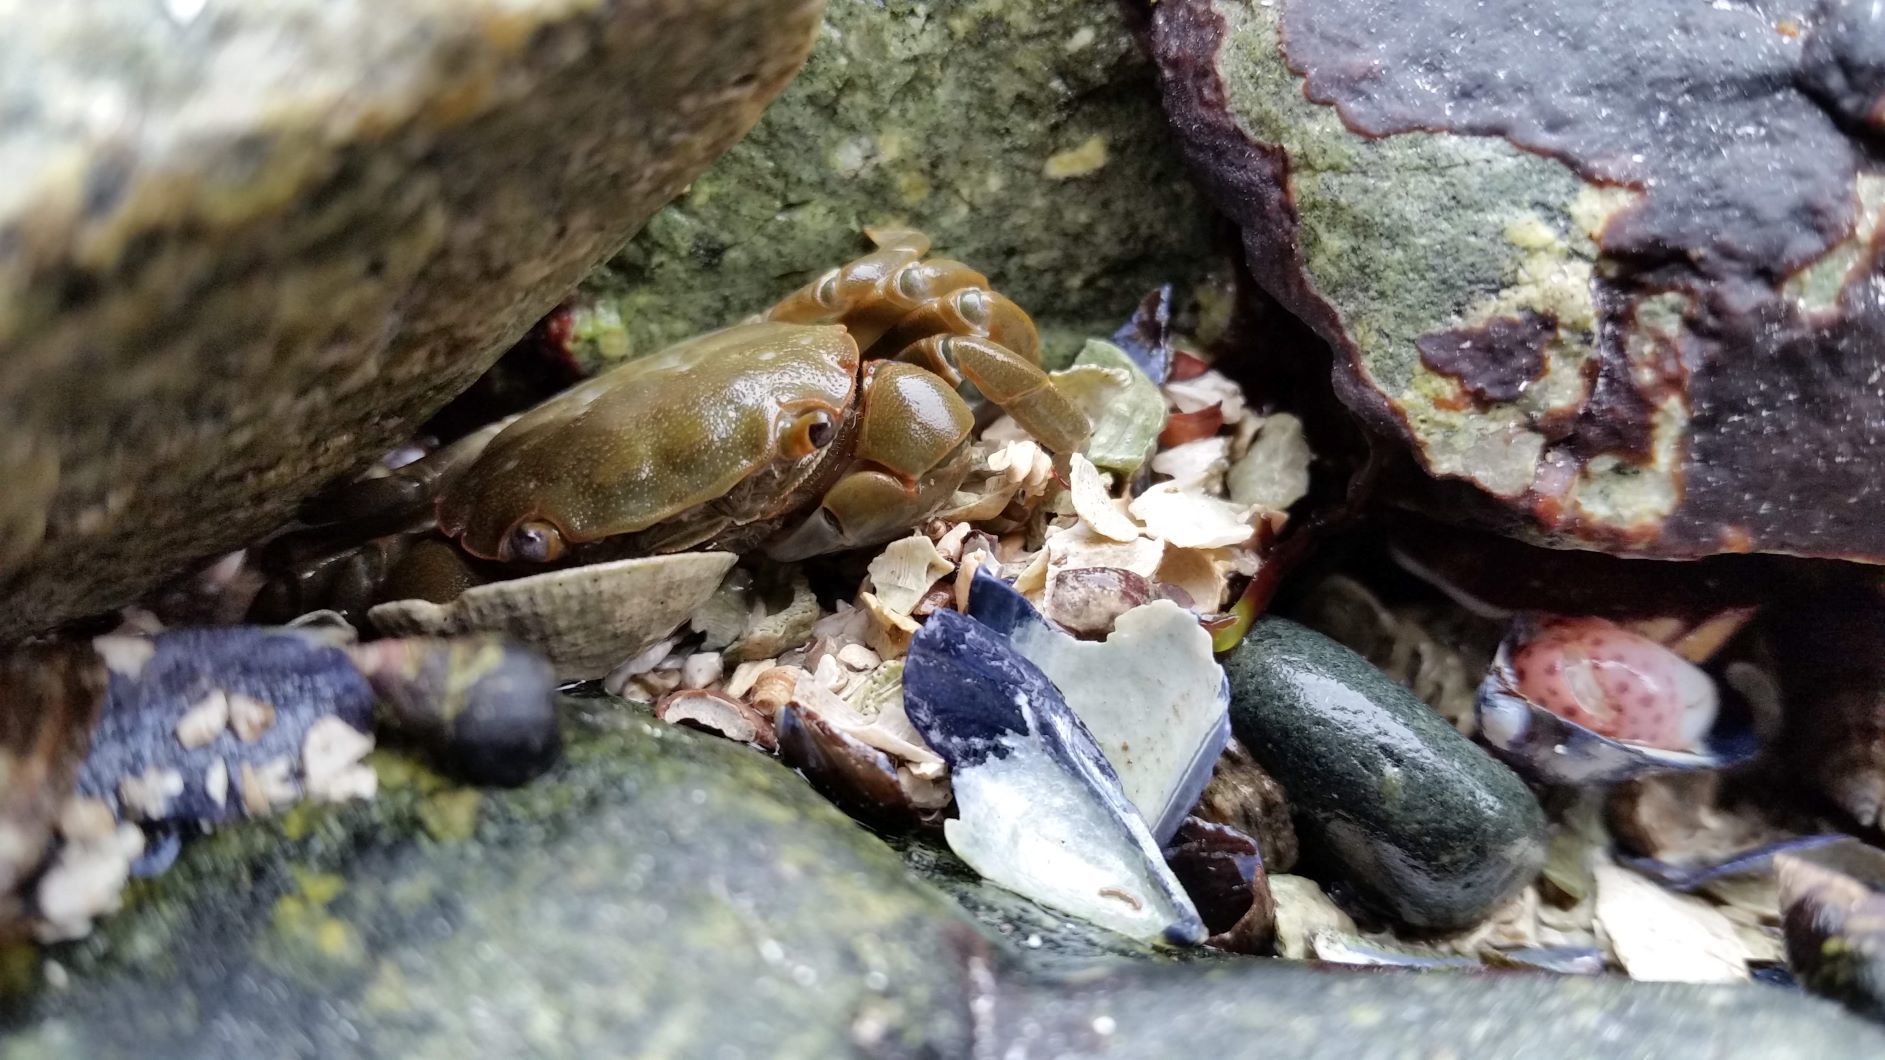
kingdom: Animalia
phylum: Arthropoda
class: Malacostraca
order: Decapoda
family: Varunidae
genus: Hemigrapsus
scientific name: Hemigrapsus nudus
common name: Purple shore crab
